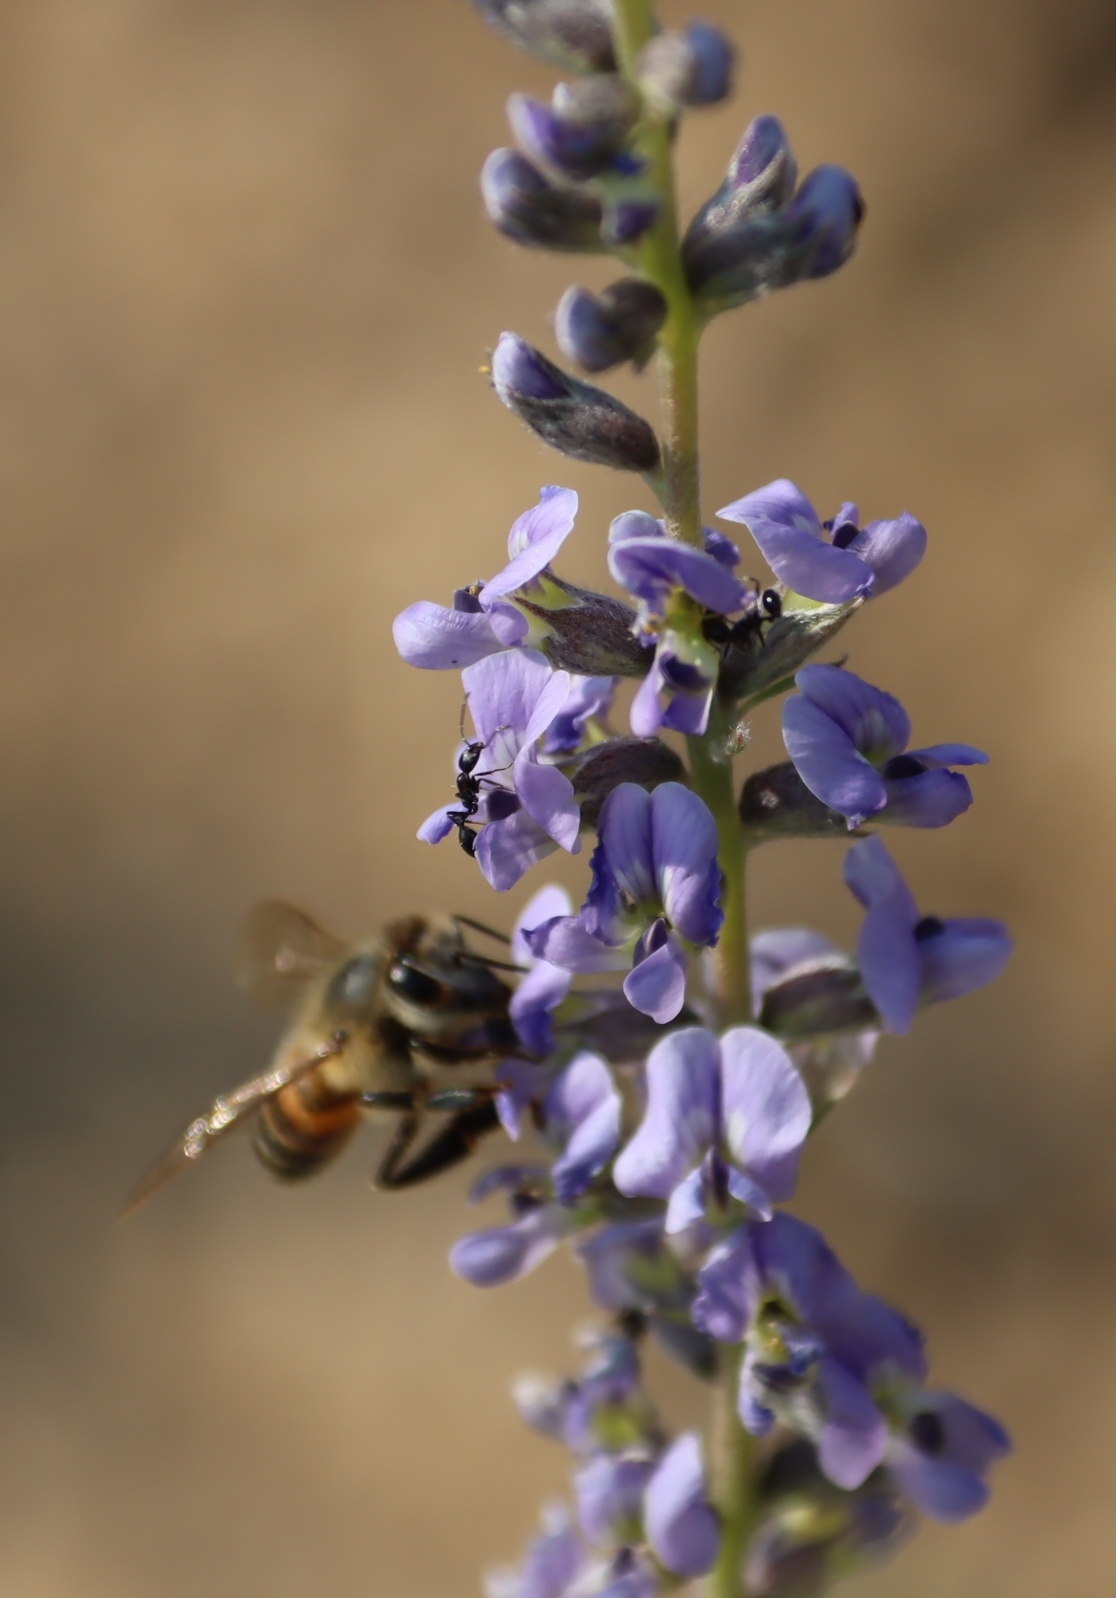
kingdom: Animalia
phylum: Arthropoda
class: Insecta
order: Hymenoptera
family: Apidae
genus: Apis
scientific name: Apis mellifera
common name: Honey bee
